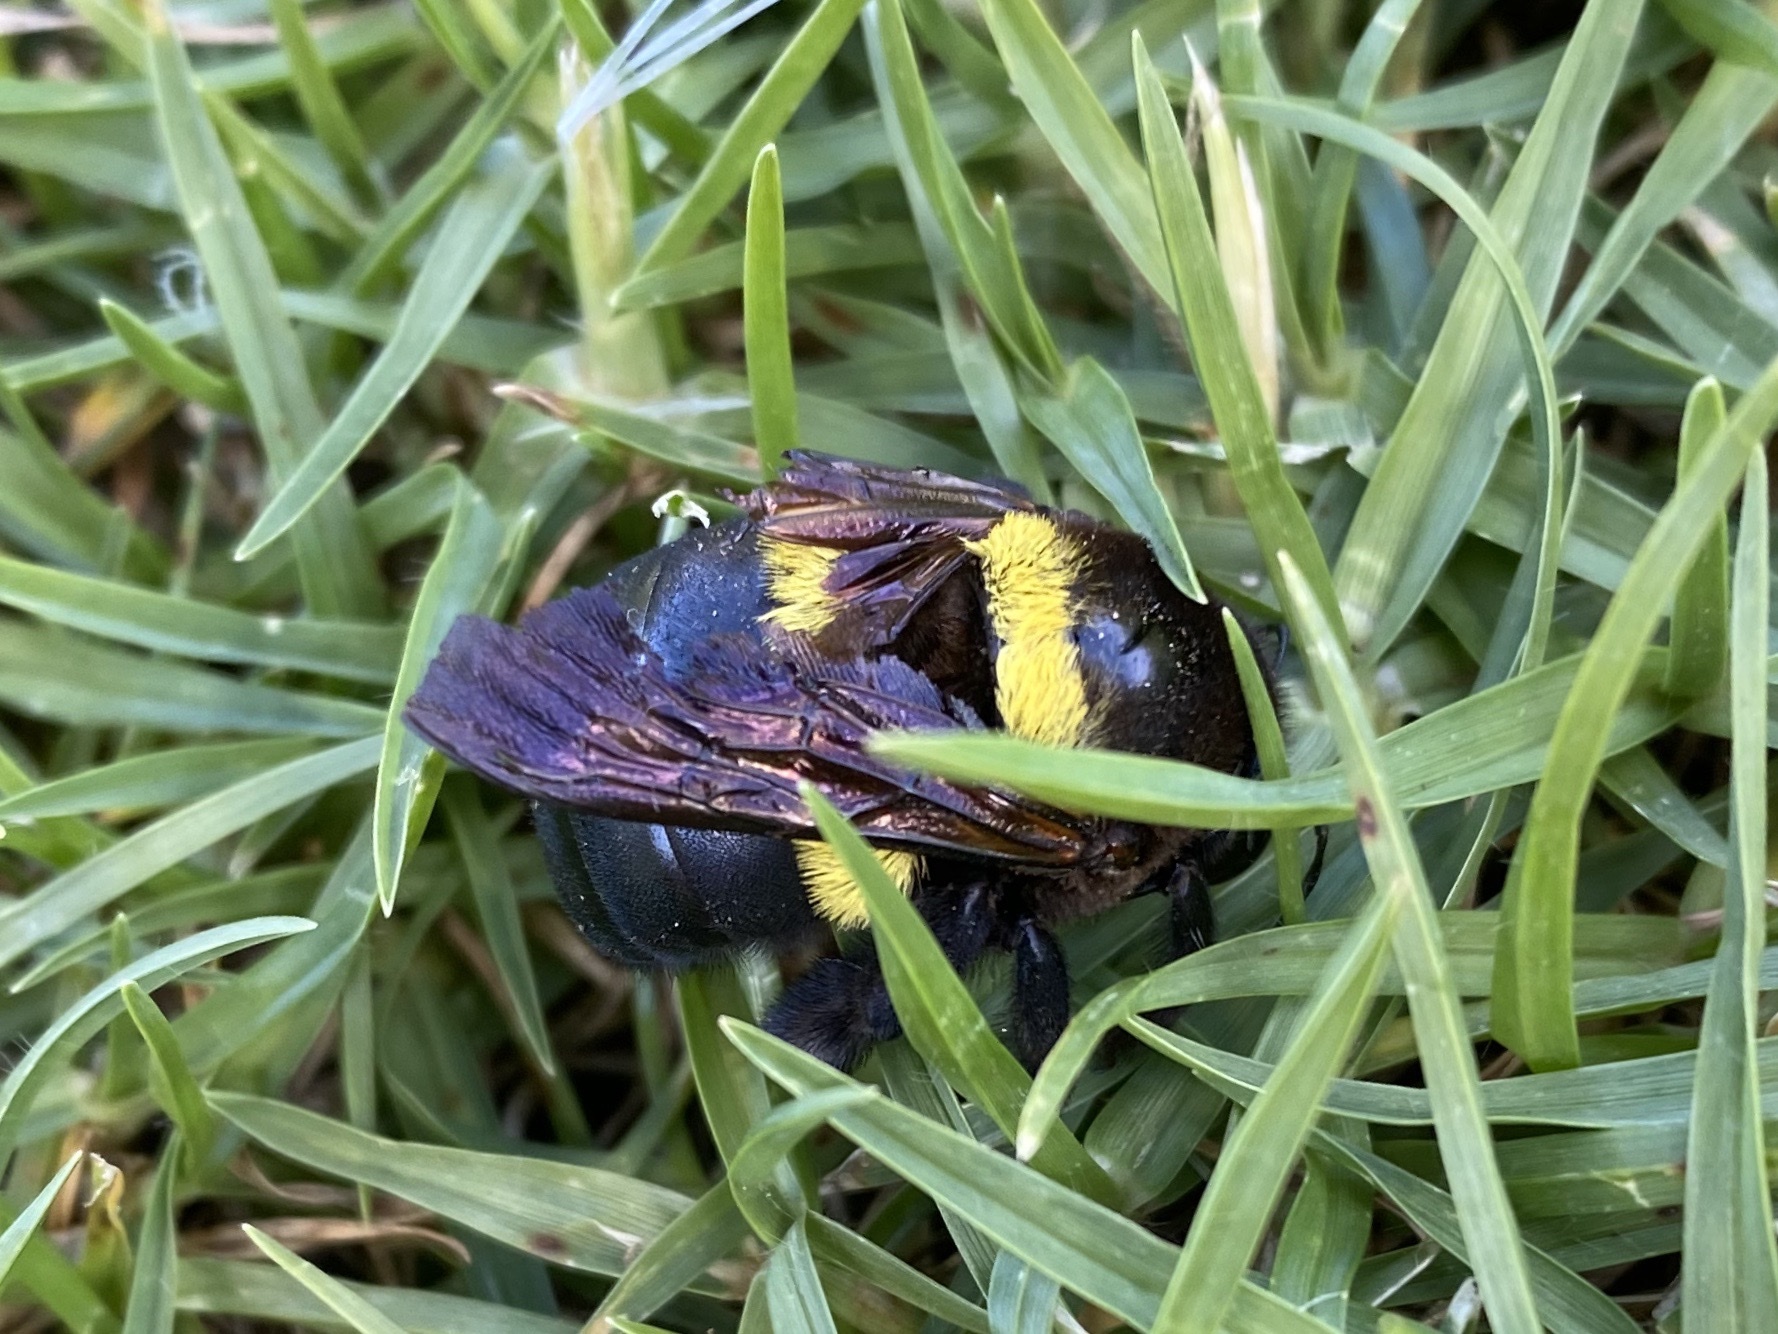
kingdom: Animalia
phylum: Arthropoda
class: Insecta
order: Hymenoptera
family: Apidae
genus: Xylocopa
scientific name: Xylocopa caffra
